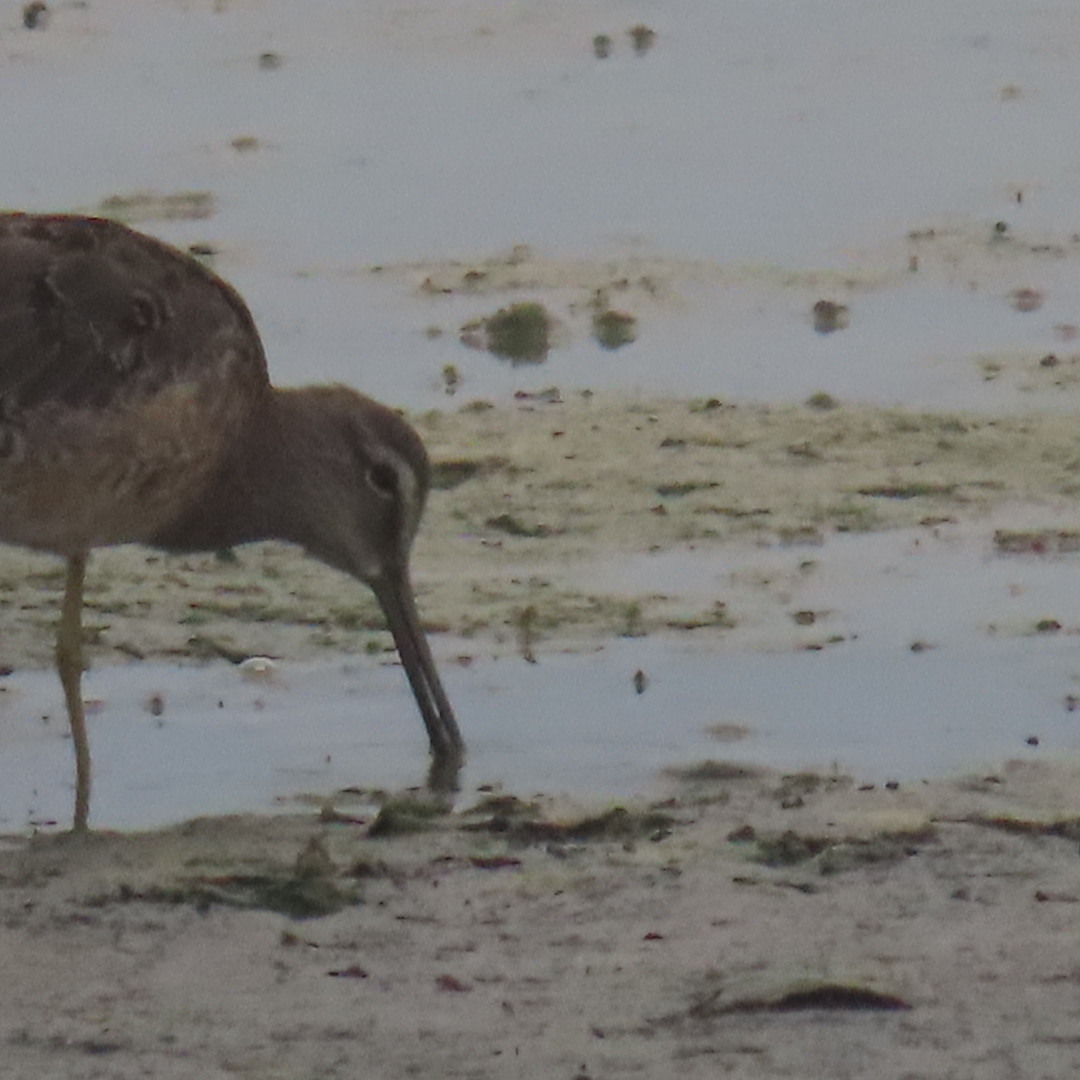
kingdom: Animalia
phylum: Chordata
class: Aves
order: Charadriiformes
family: Scolopacidae
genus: Limnodromus
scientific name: Limnodromus griseus
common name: Short-billed dowitcher
